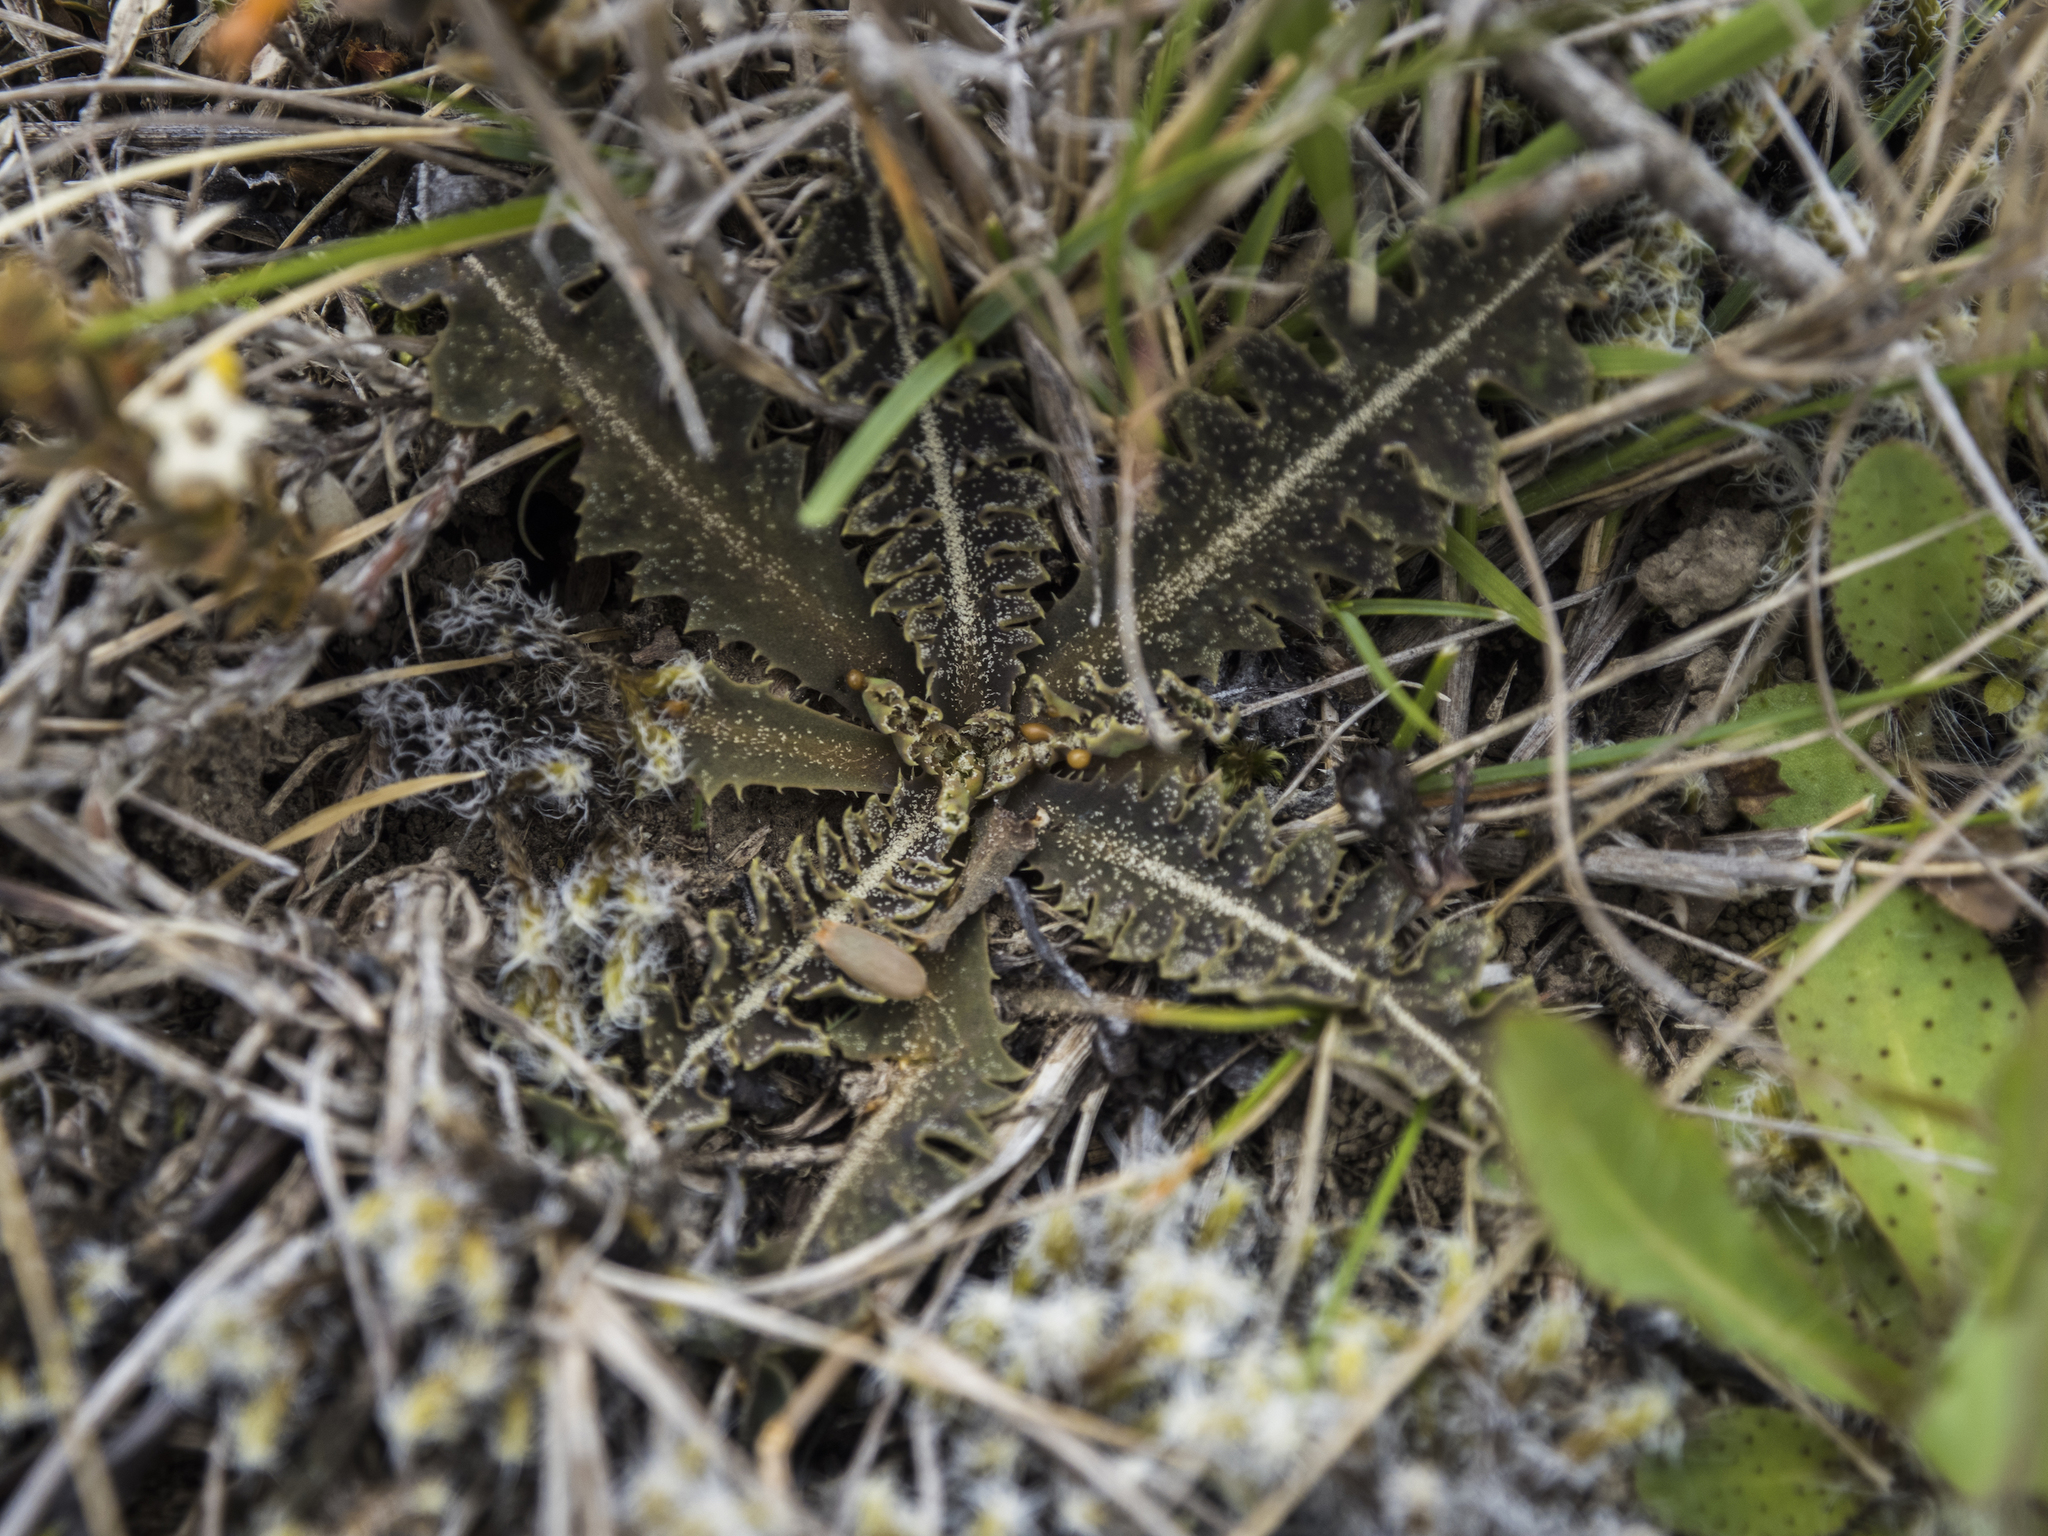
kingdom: Plantae
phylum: Tracheophyta
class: Magnoliopsida
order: Asterales
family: Asteraceae
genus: Sonchus
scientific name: Sonchus novae-zelandiae
